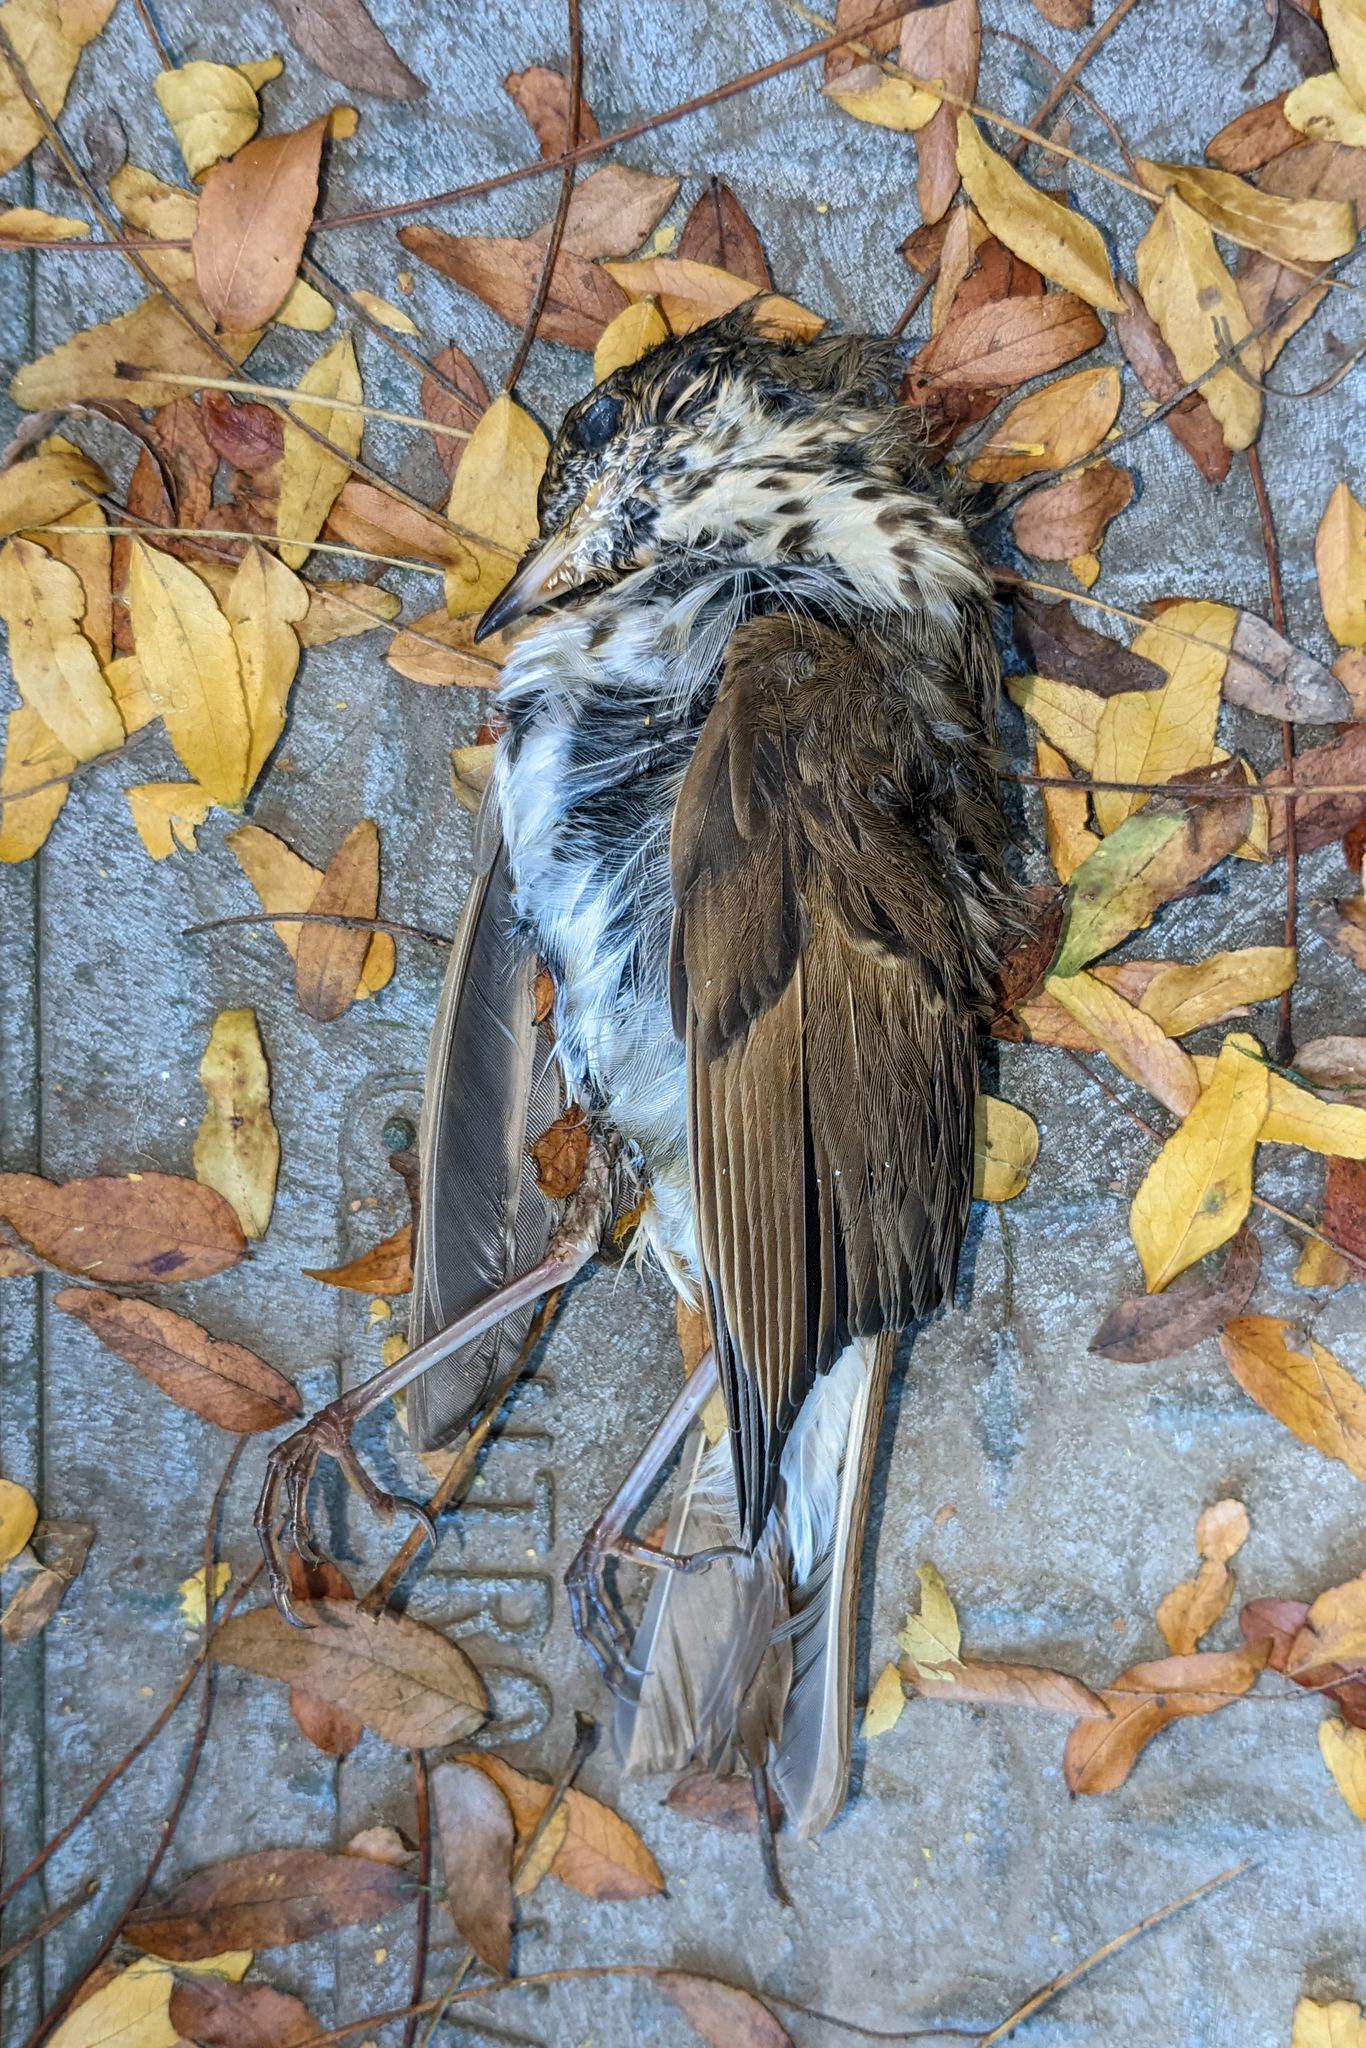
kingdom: Animalia
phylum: Chordata
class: Aves
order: Passeriformes
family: Turdidae
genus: Catharus
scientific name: Catharus guttatus
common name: Hermit thrush
